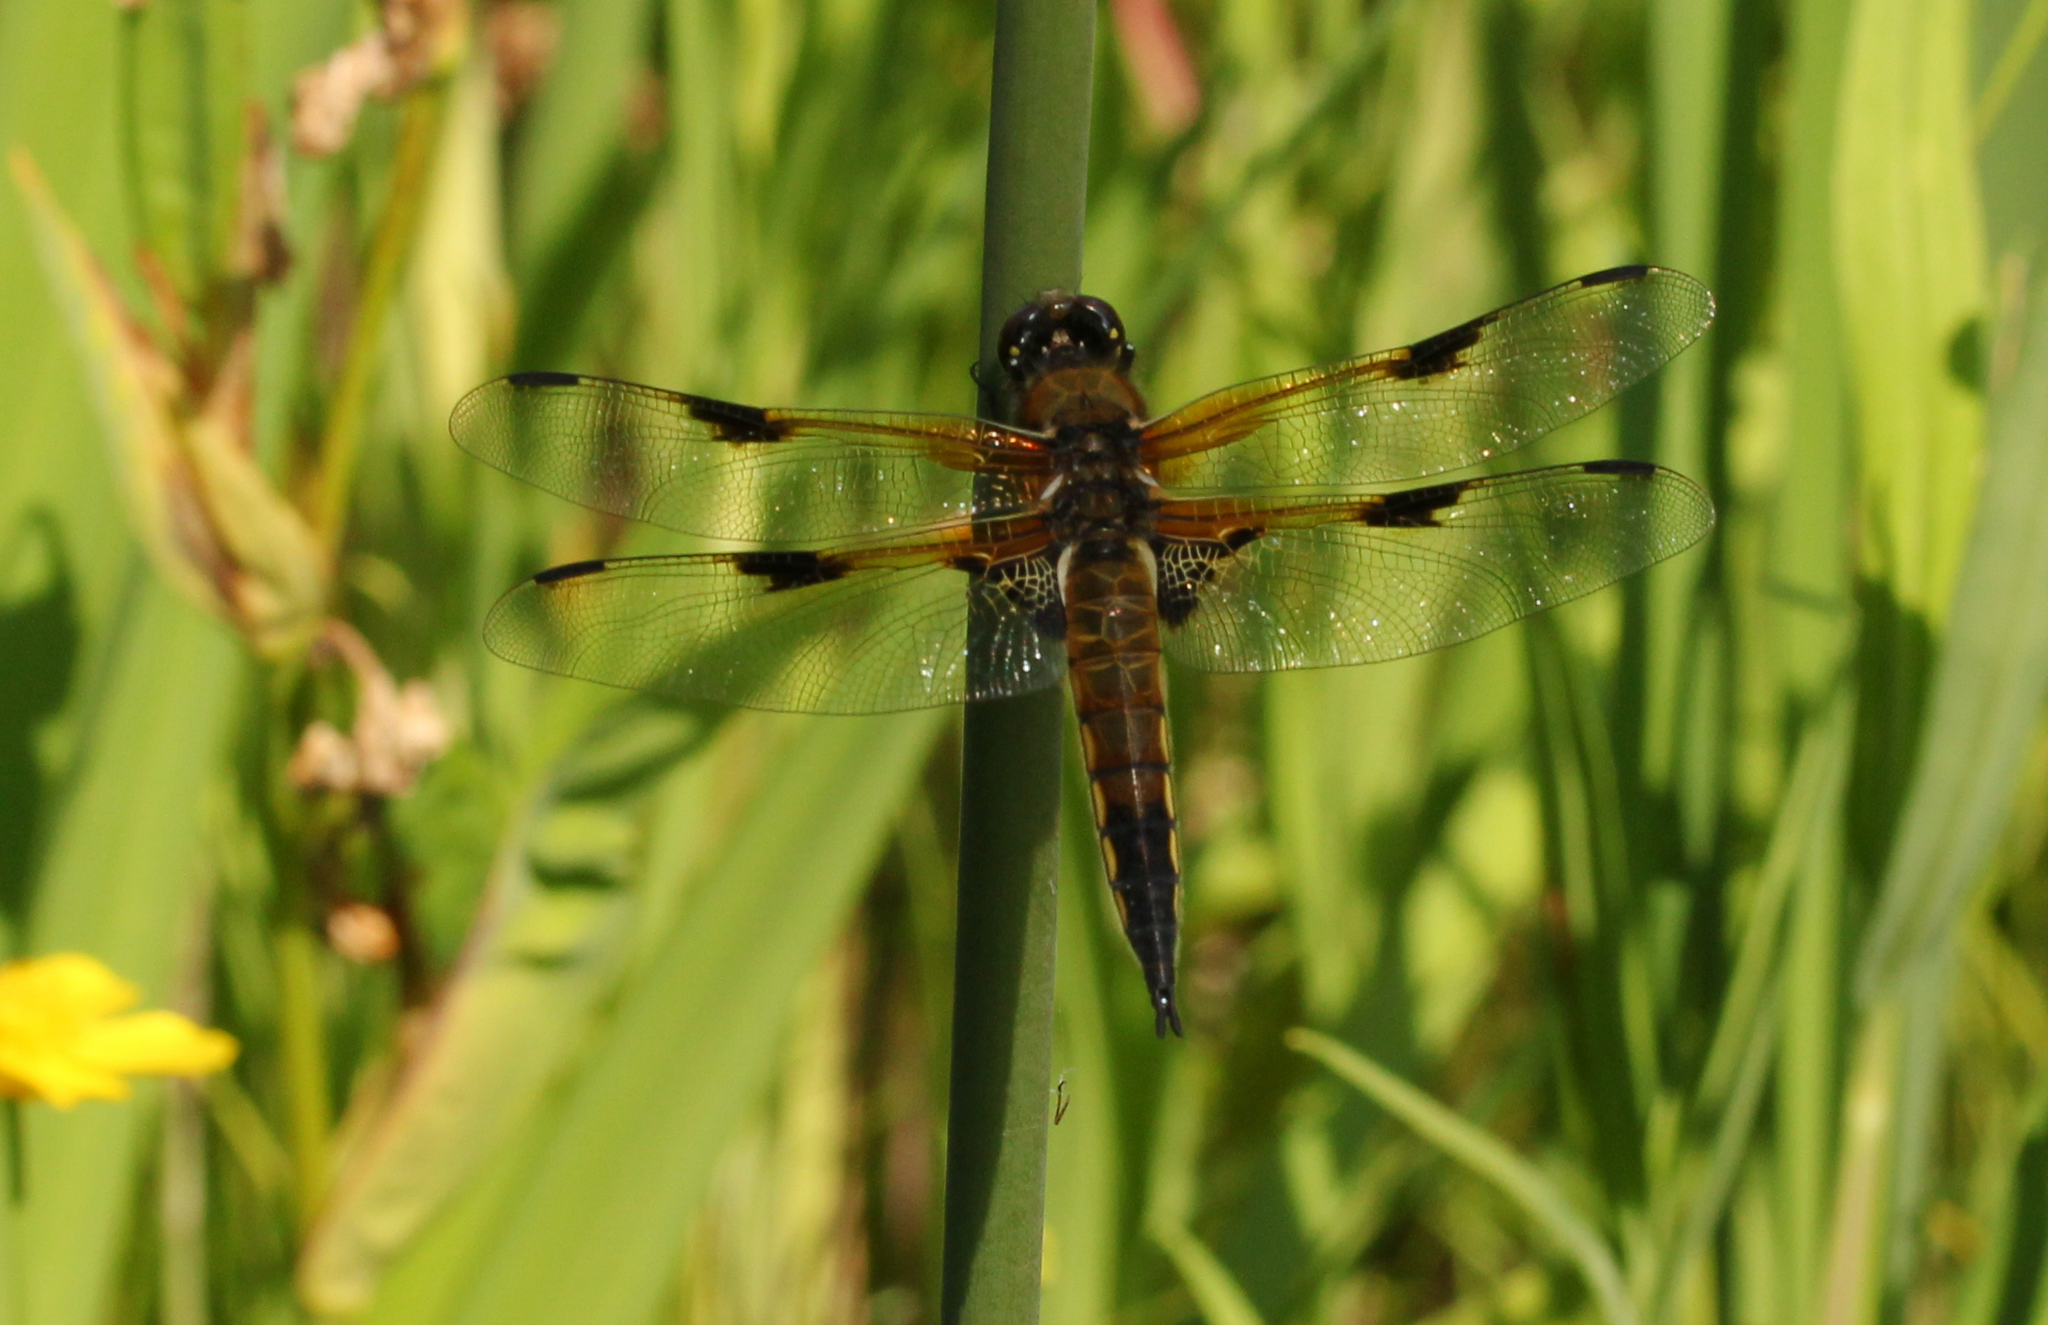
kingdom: Animalia
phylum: Arthropoda
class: Insecta
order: Odonata
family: Libellulidae
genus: Libellula
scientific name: Libellula quadrimaculata
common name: Four-spotted chaser
